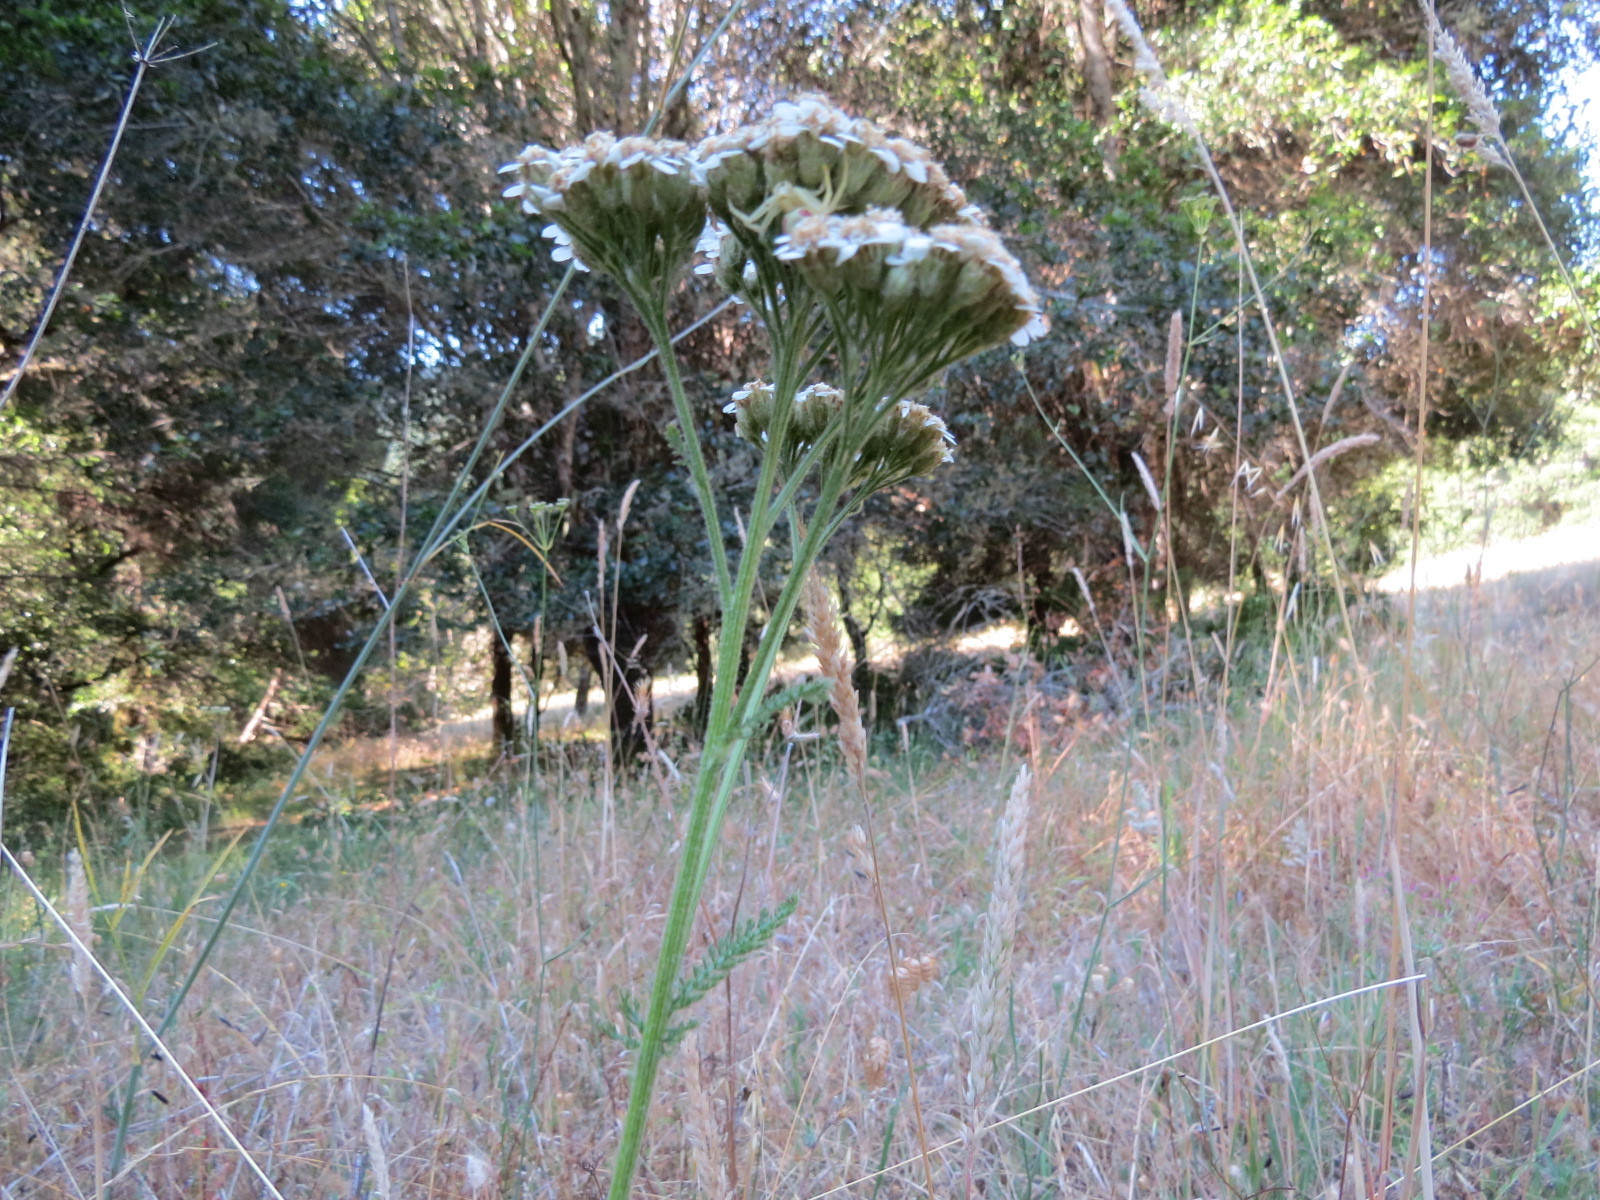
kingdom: Plantae
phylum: Tracheophyta
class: Magnoliopsida
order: Asterales
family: Asteraceae
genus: Achillea
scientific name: Achillea millefolium
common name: Yarrow
